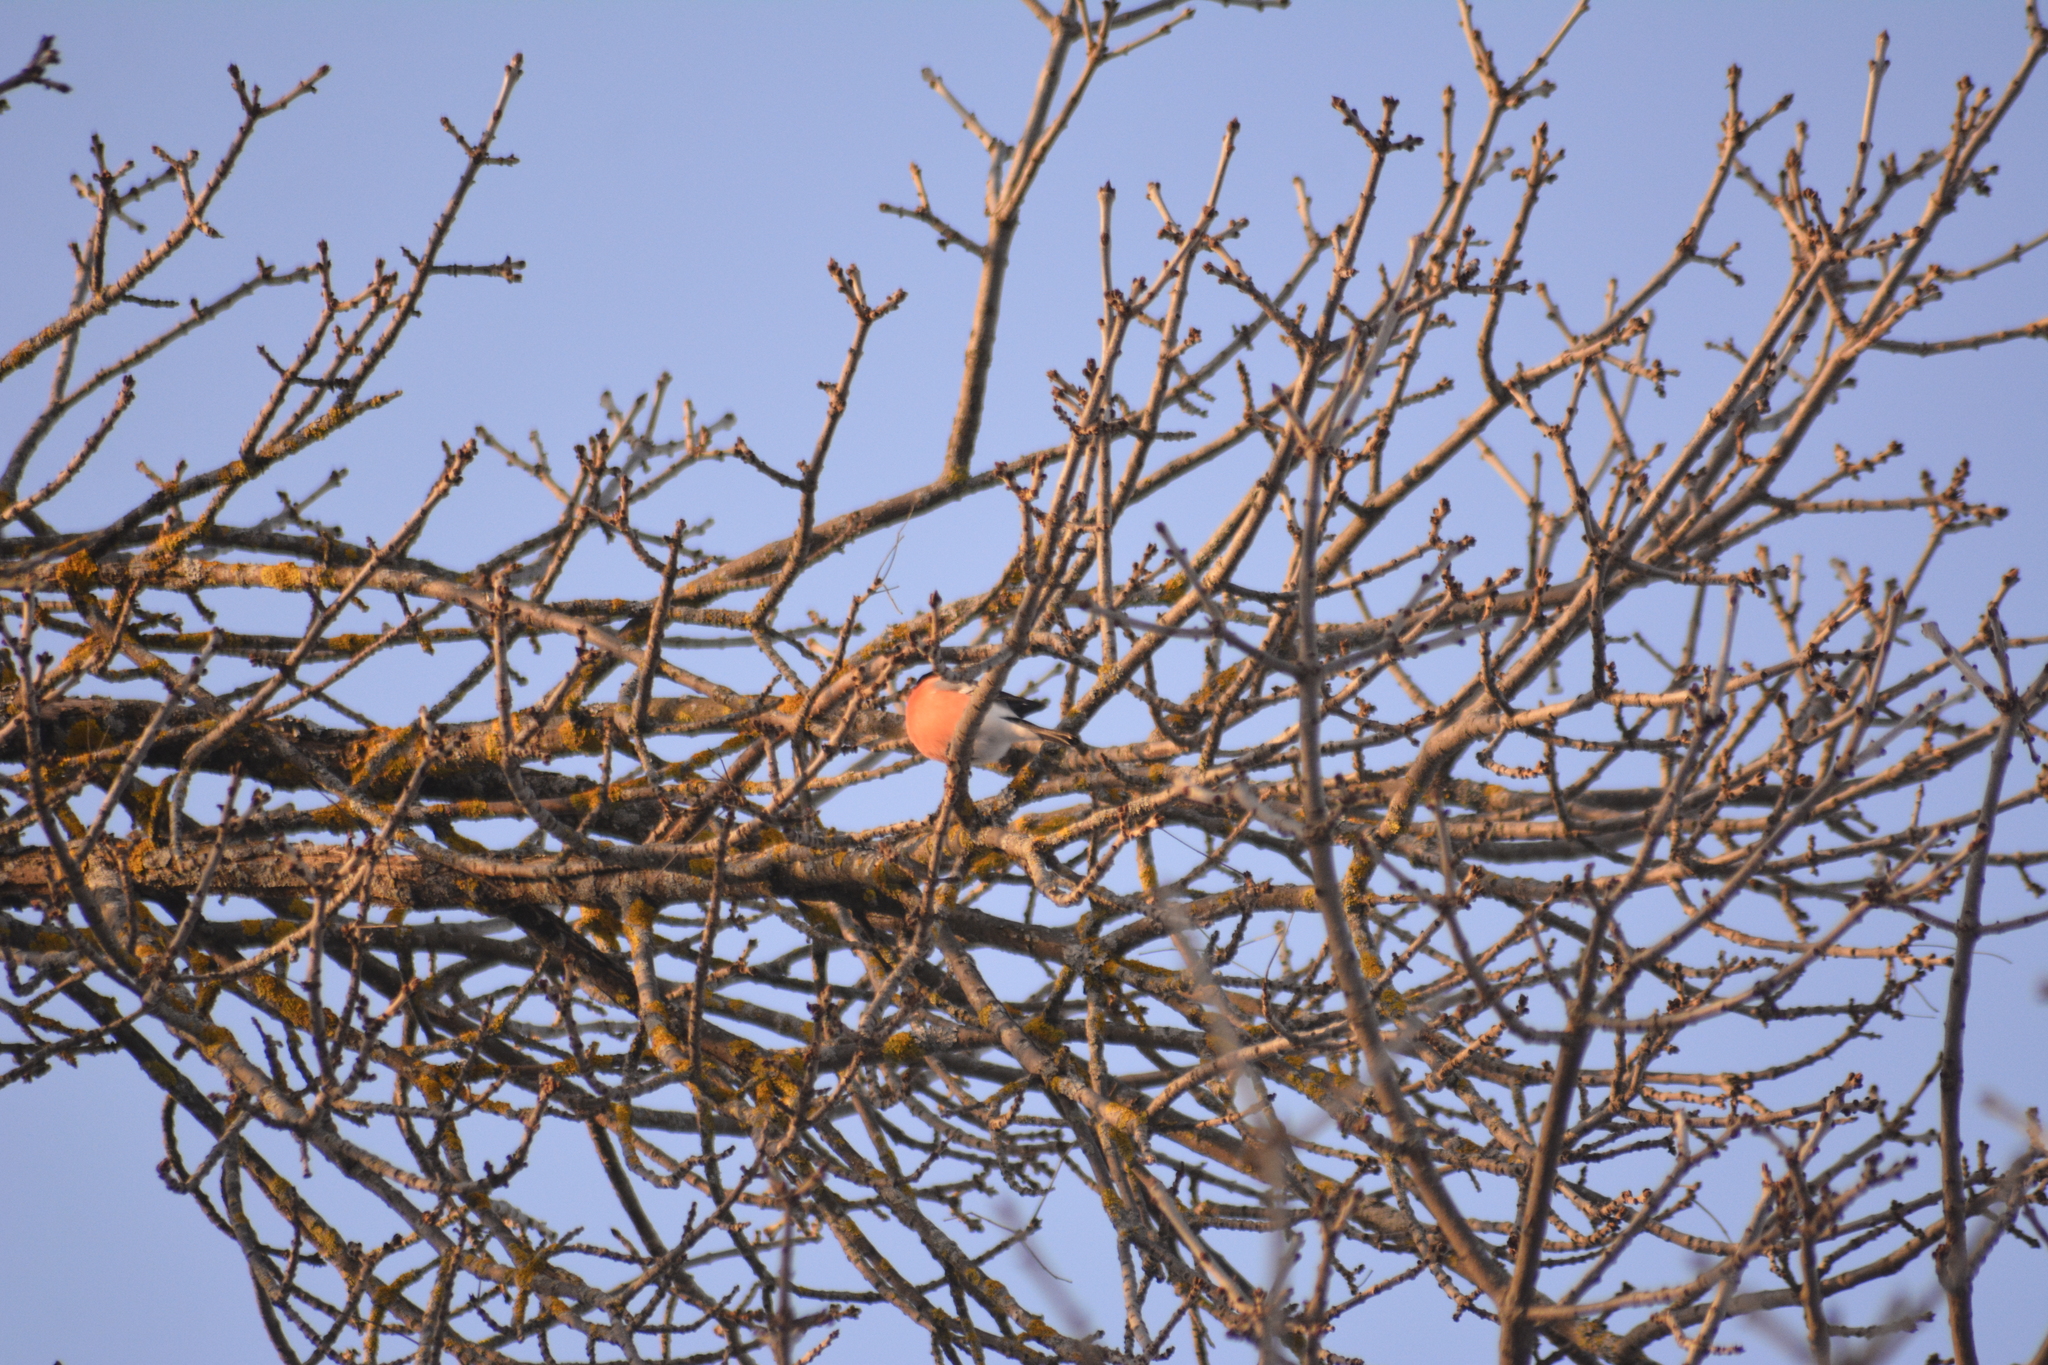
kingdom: Animalia
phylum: Chordata
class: Aves
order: Passeriformes
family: Fringillidae
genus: Pyrrhula
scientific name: Pyrrhula pyrrhula
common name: Eurasian bullfinch
